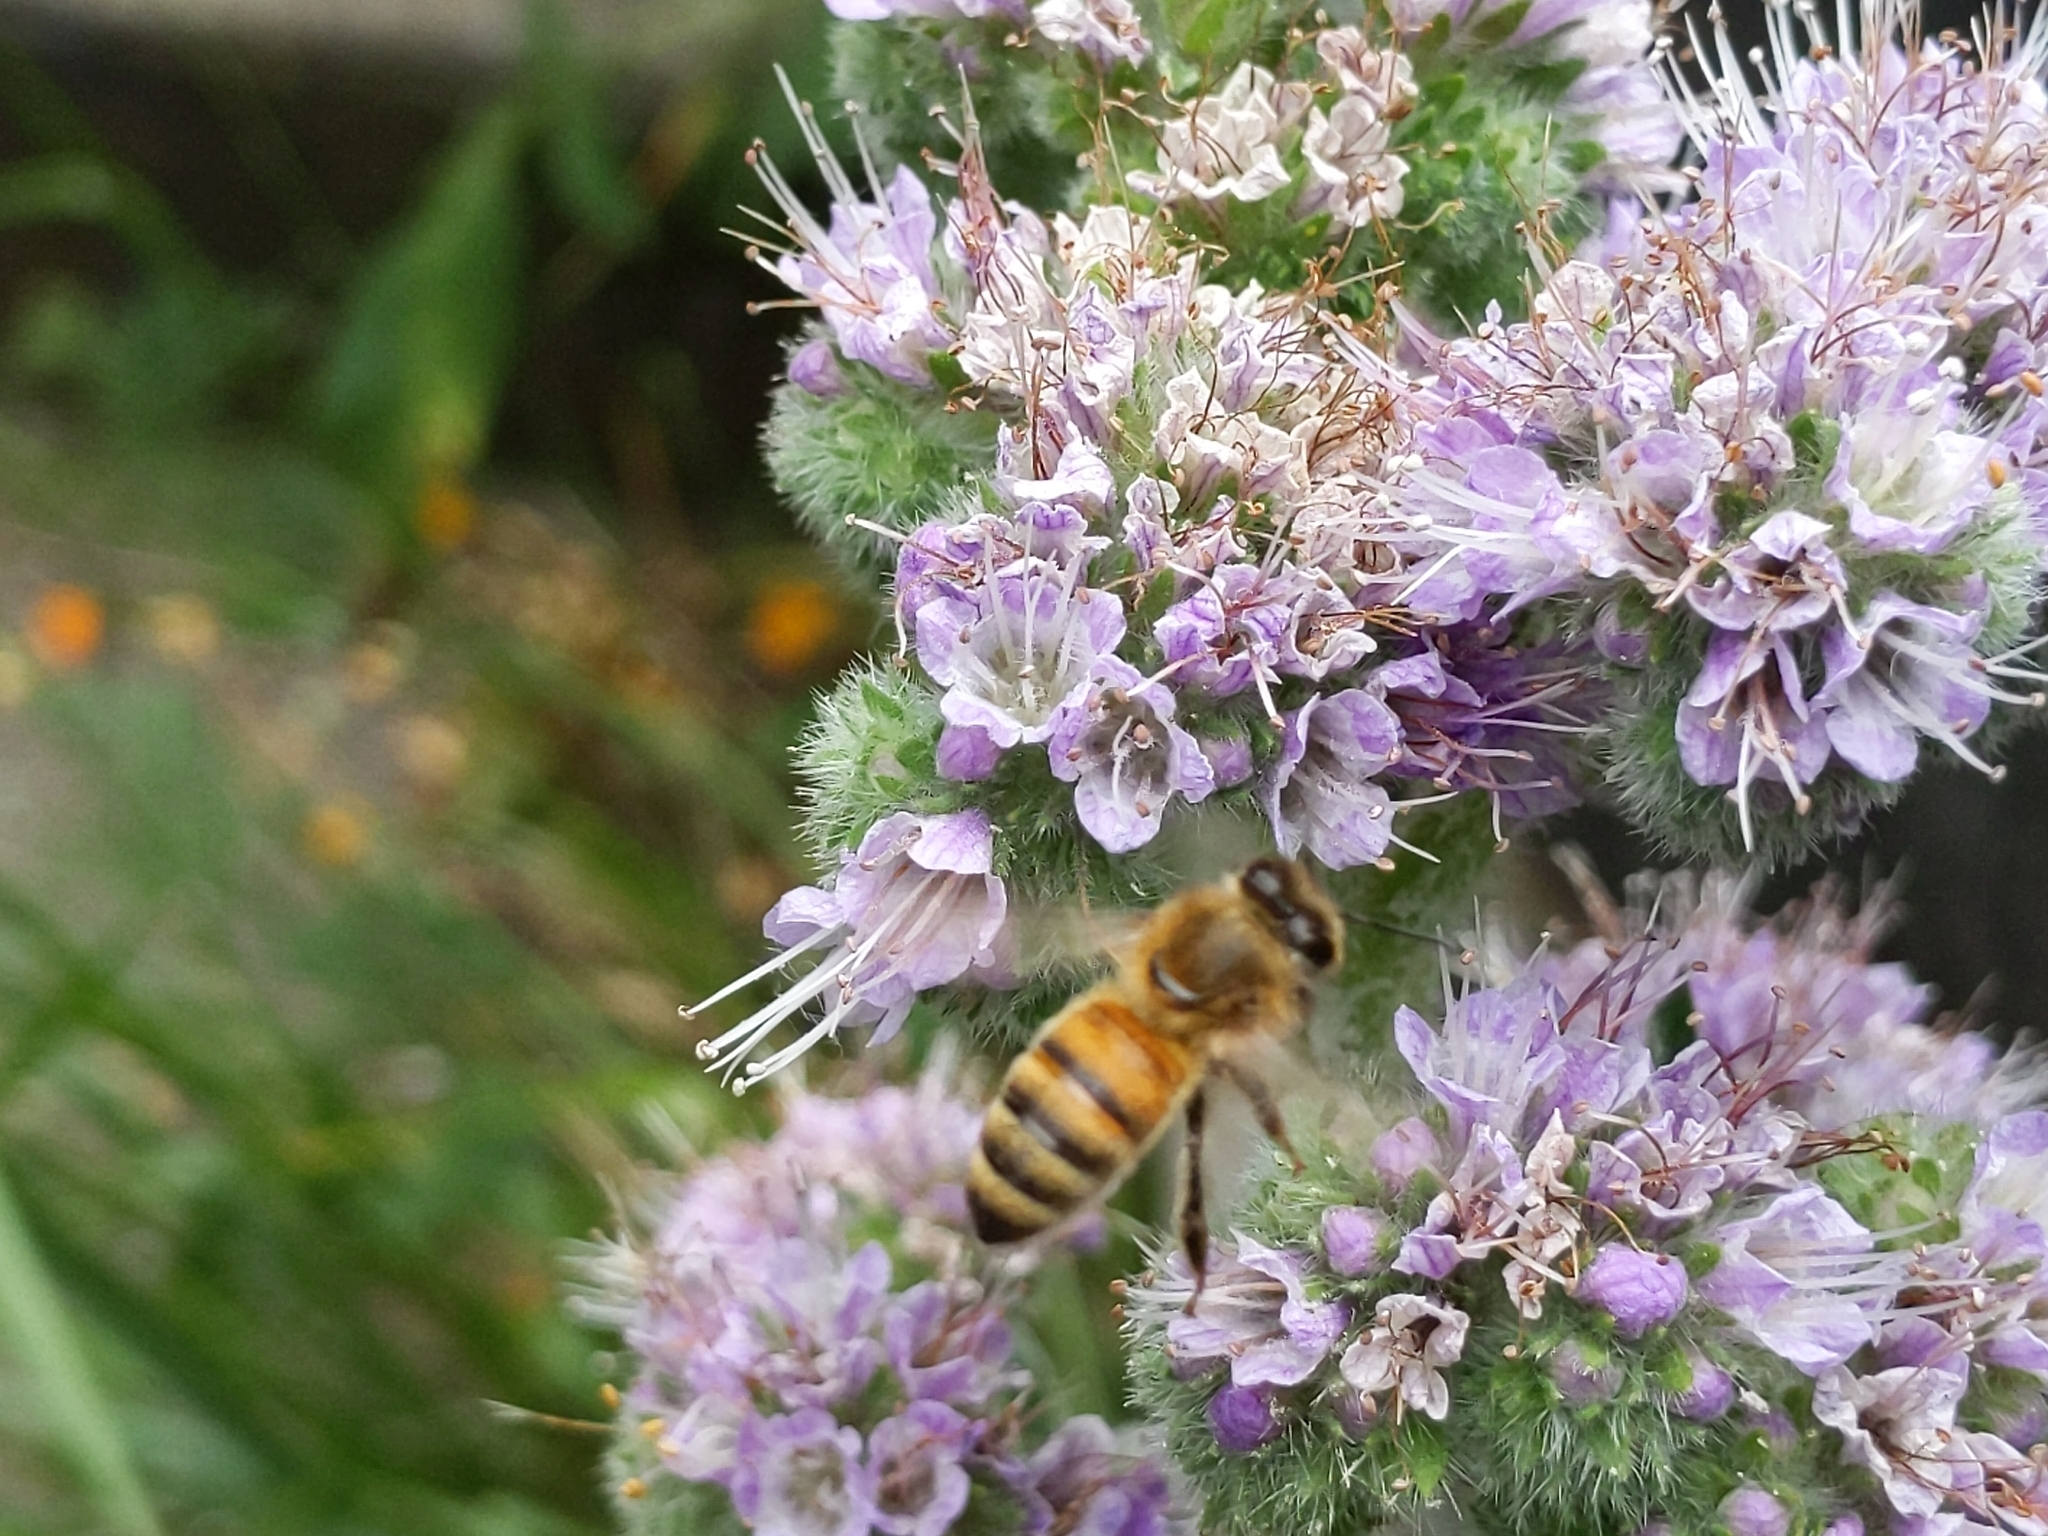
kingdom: Animalia
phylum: Arthropoda
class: Insecta
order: Hymenoptera
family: Apidae
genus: Apis
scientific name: Apis mellifera
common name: Honey bee
